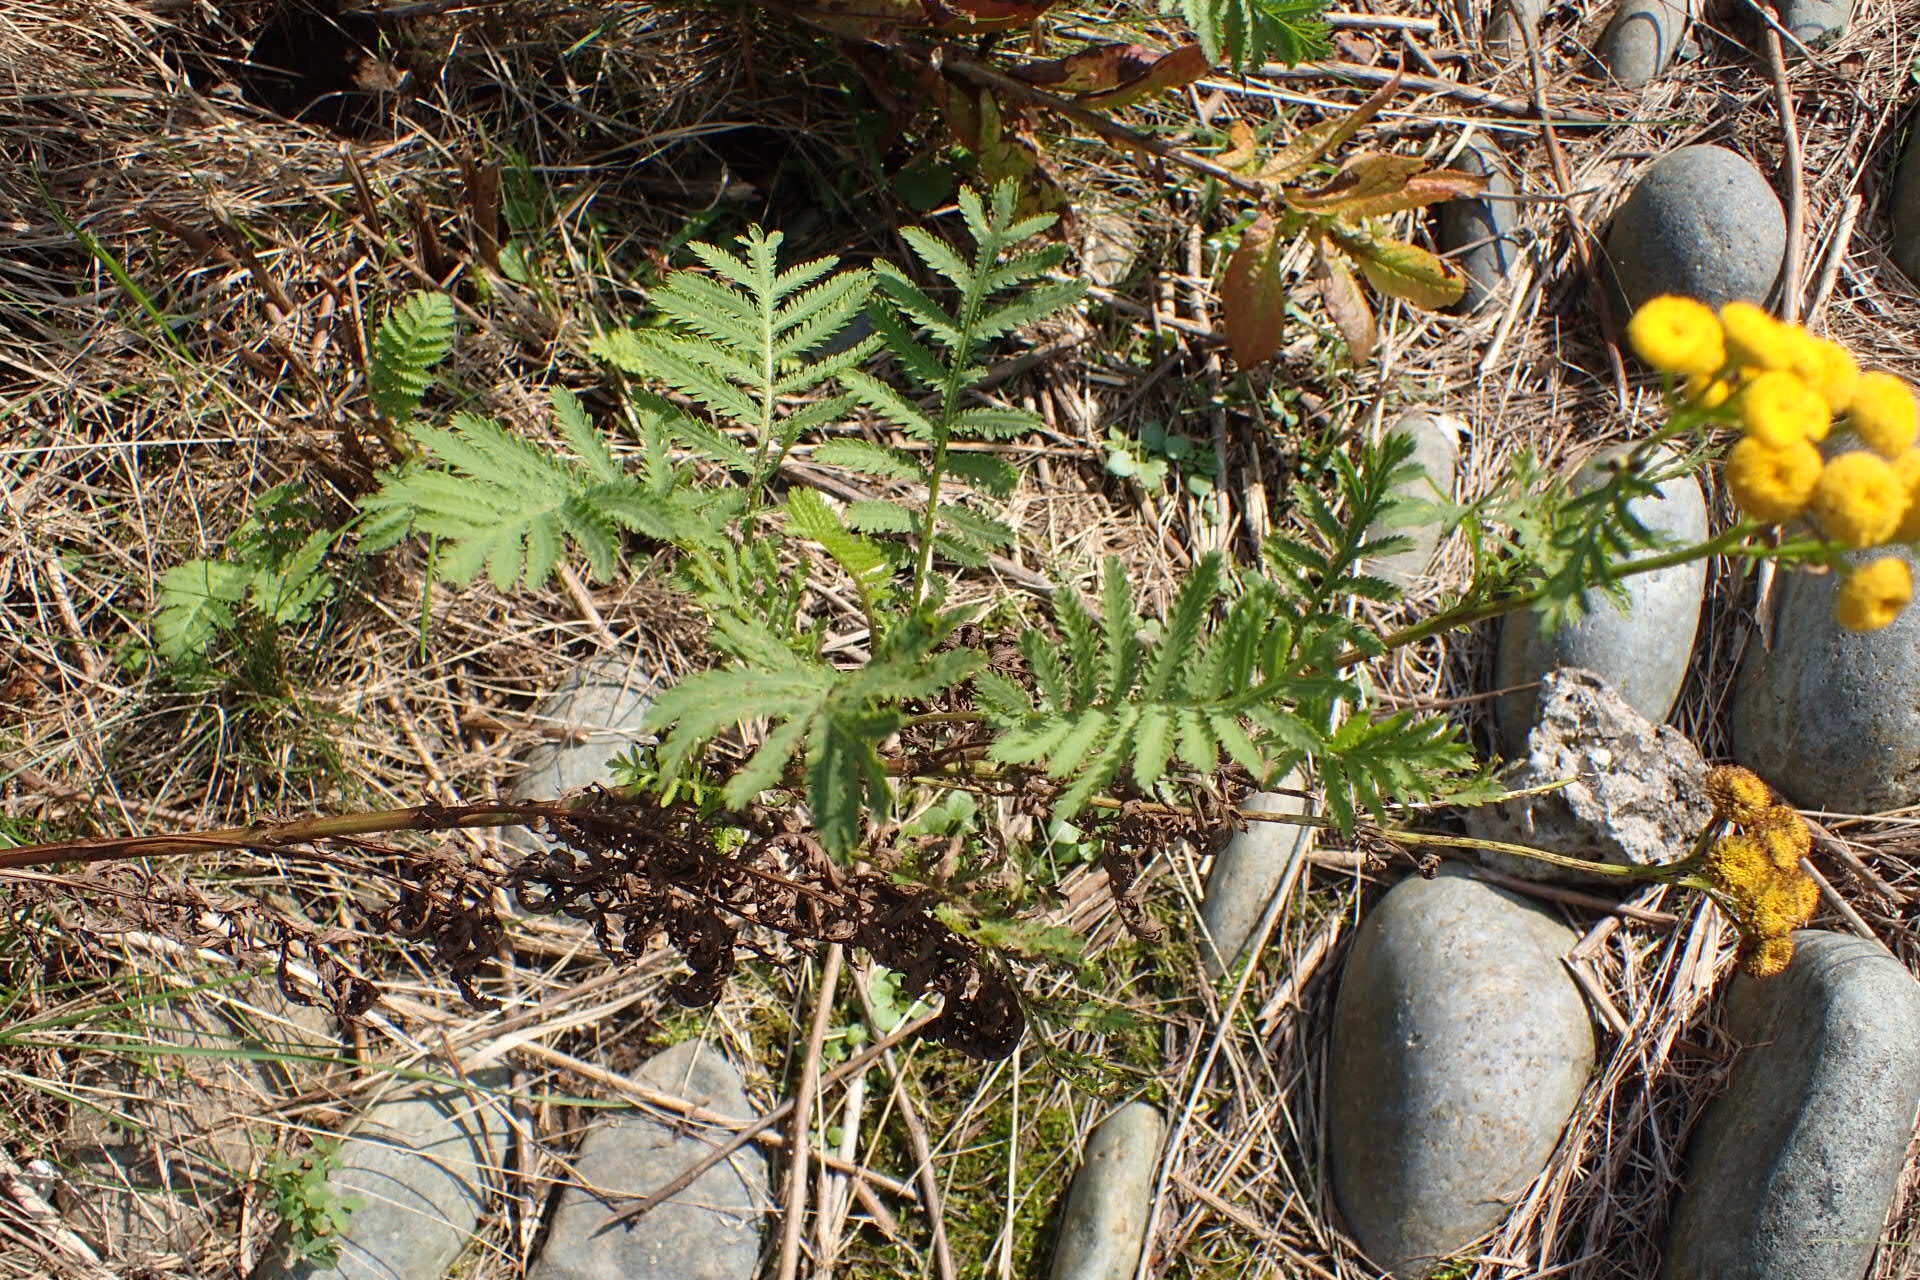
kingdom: Plantae
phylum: Tracheophyta
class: Magnoliopsida
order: Asterales
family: Asteraceae
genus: Tanacetum
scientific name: Tanacetum vulgare
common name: Common tansy
